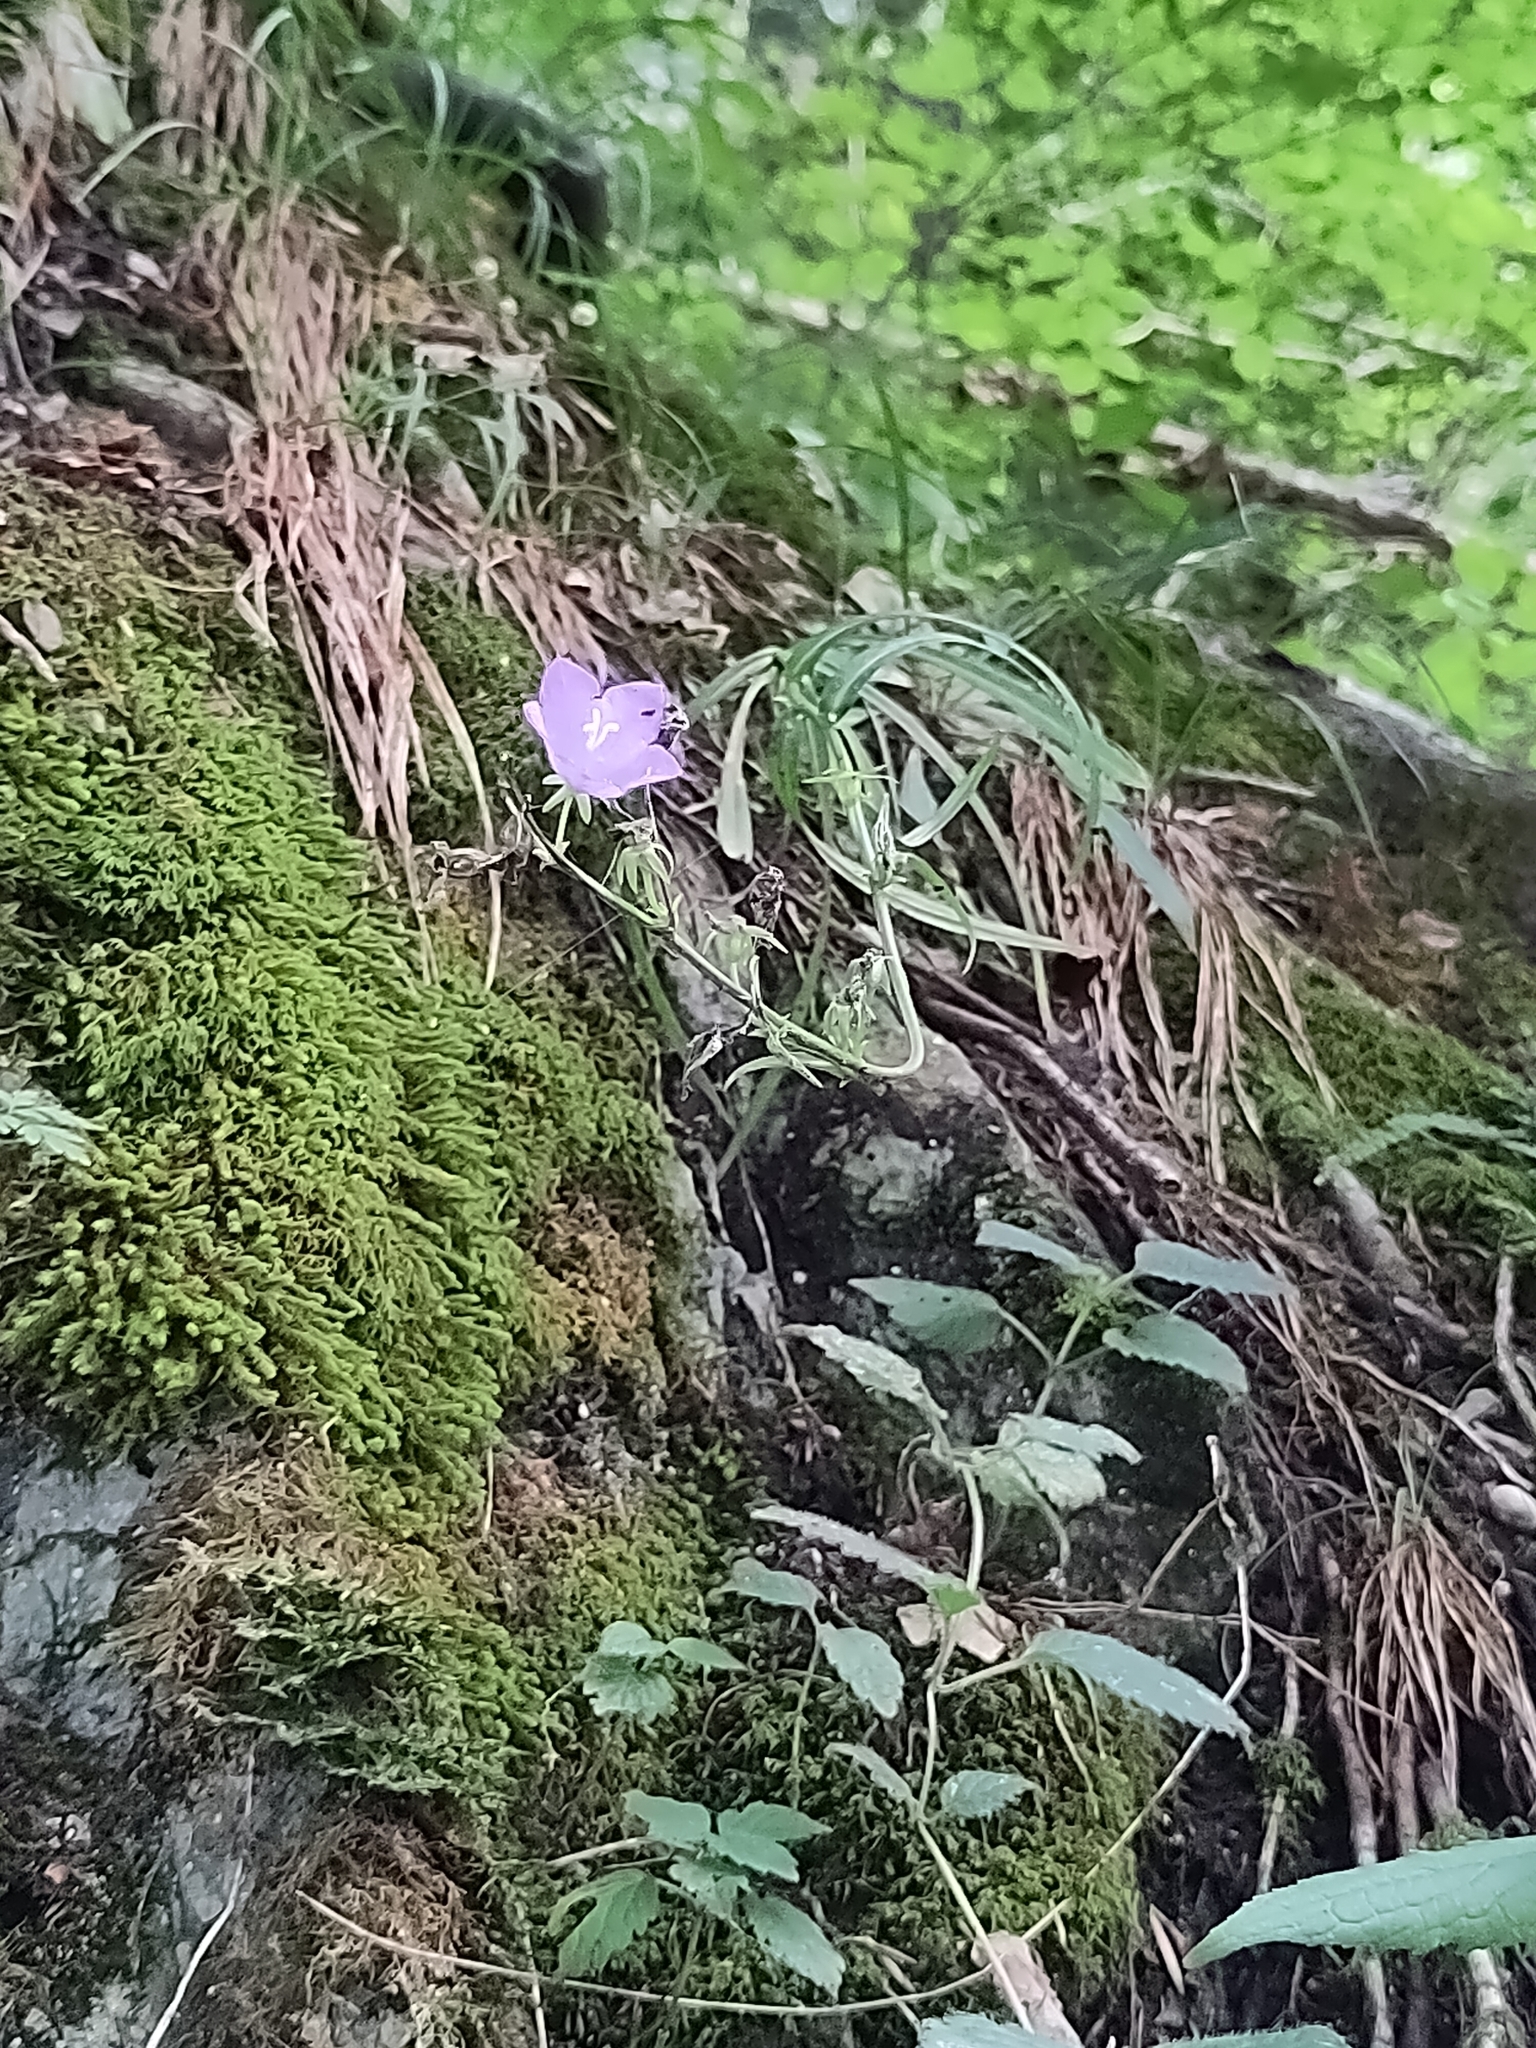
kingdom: Plantae
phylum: Tracheophyta
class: Magnoliopsida
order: Asterales
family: Campanulaceae
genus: Campanula
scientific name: Campanula persicifolia
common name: Peach-leaved bellflower
